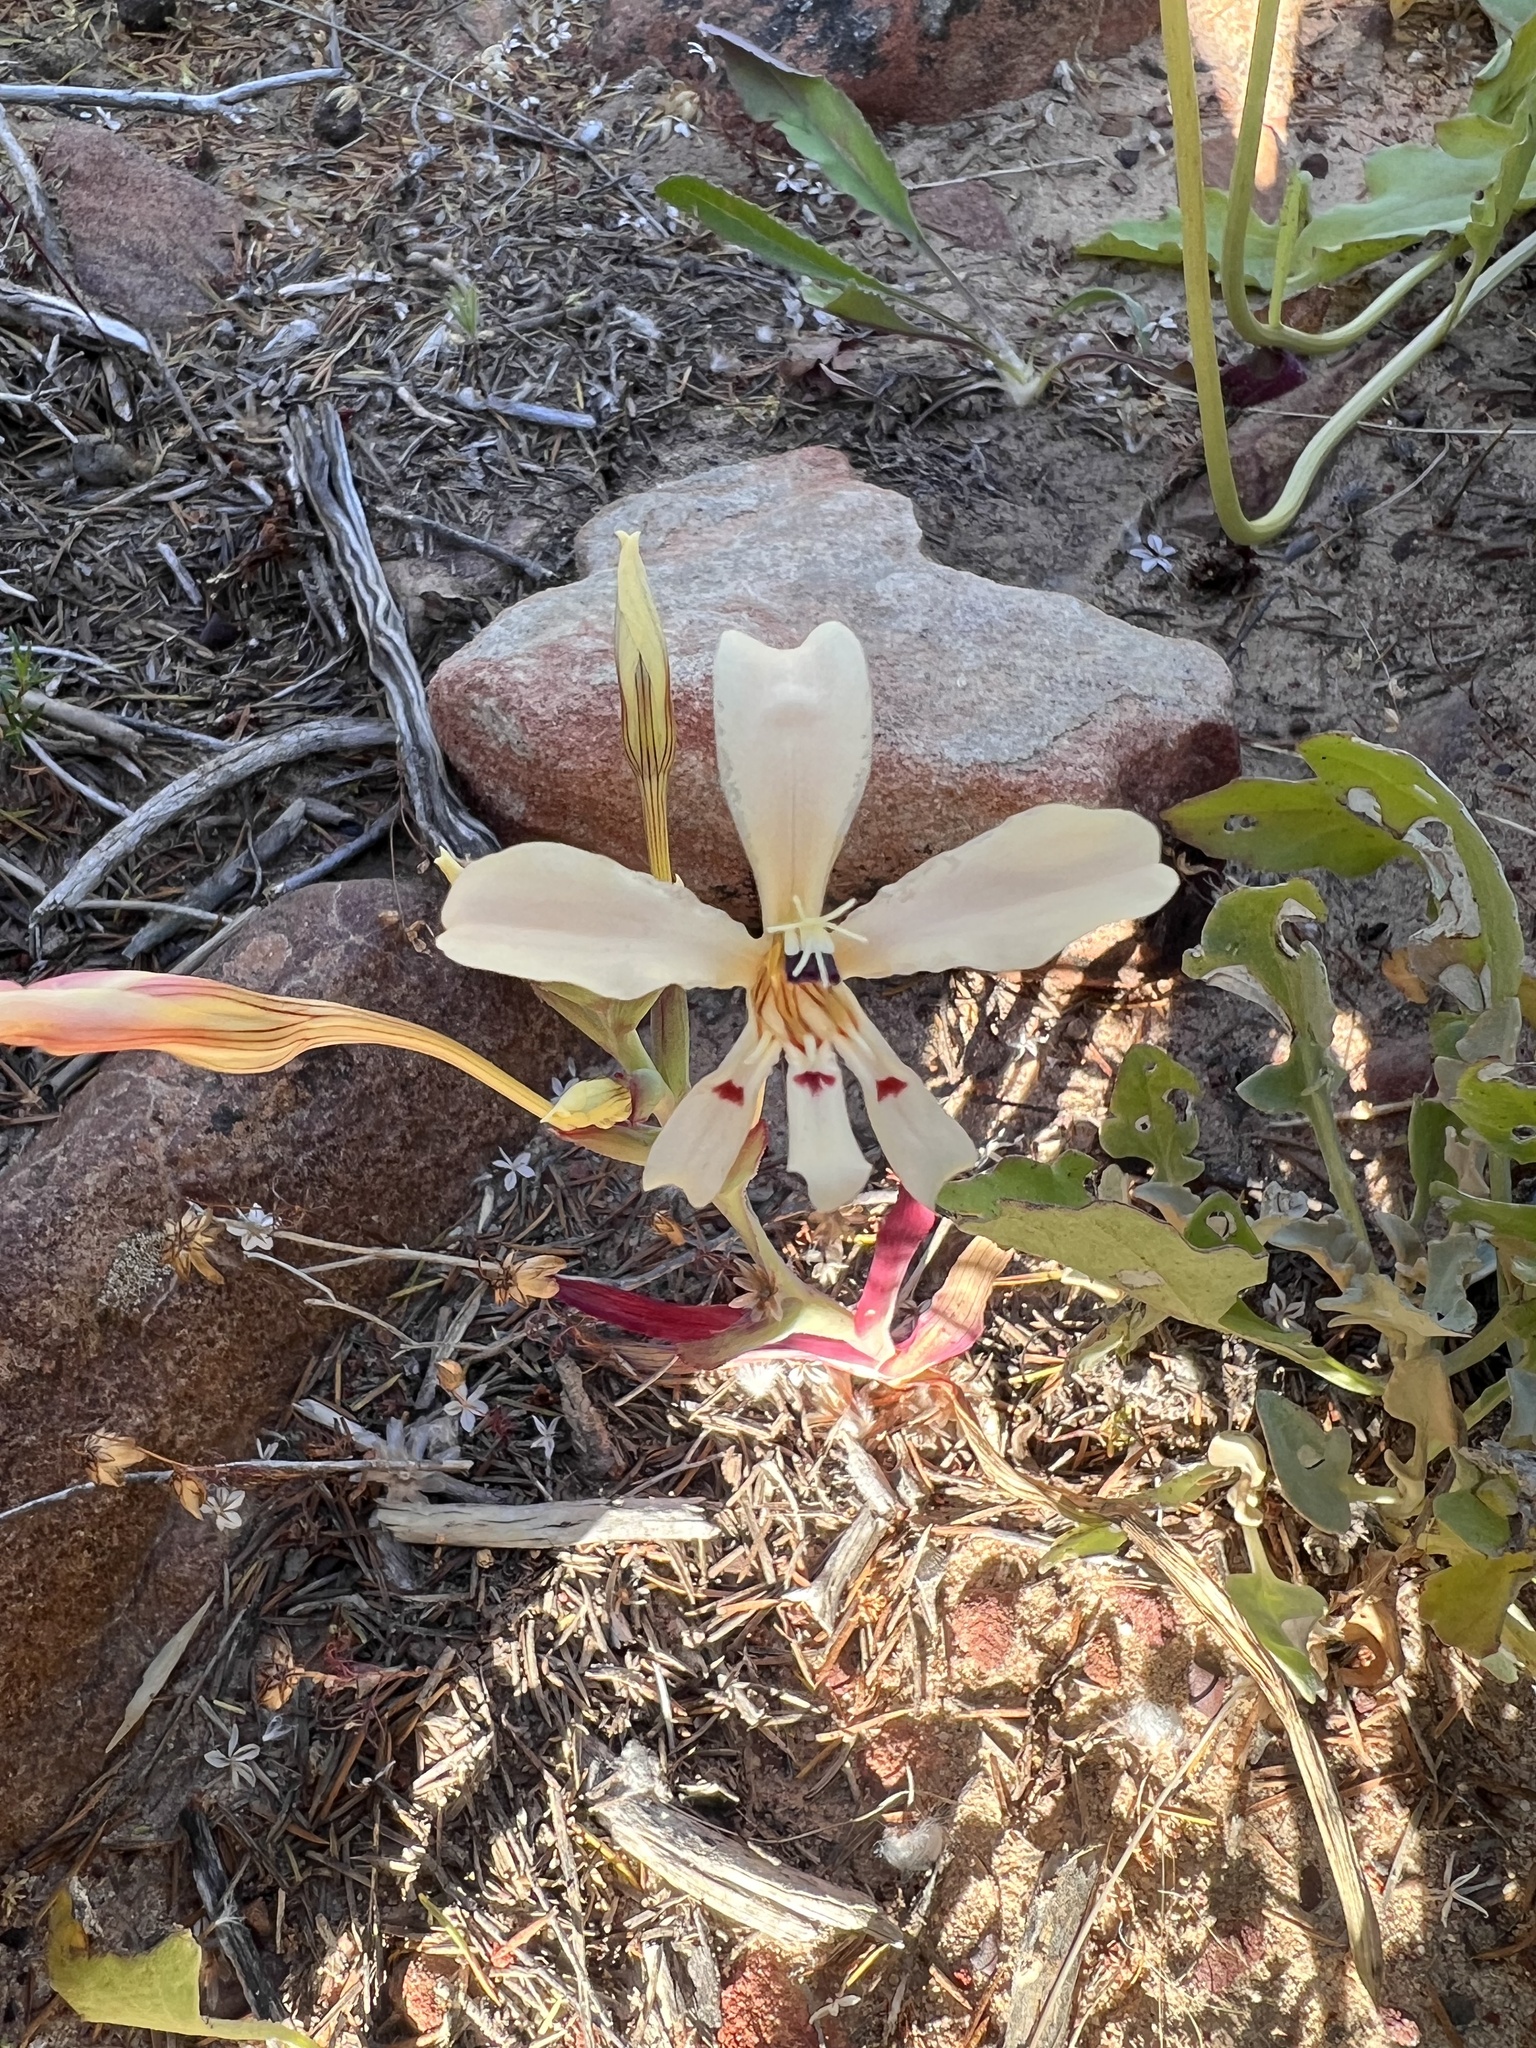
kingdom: Plantae
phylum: Tracheophyta
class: Liliopsida
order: Asparagales
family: Iridaceae
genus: Lapeirousia
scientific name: Lapeirousia fabricii
